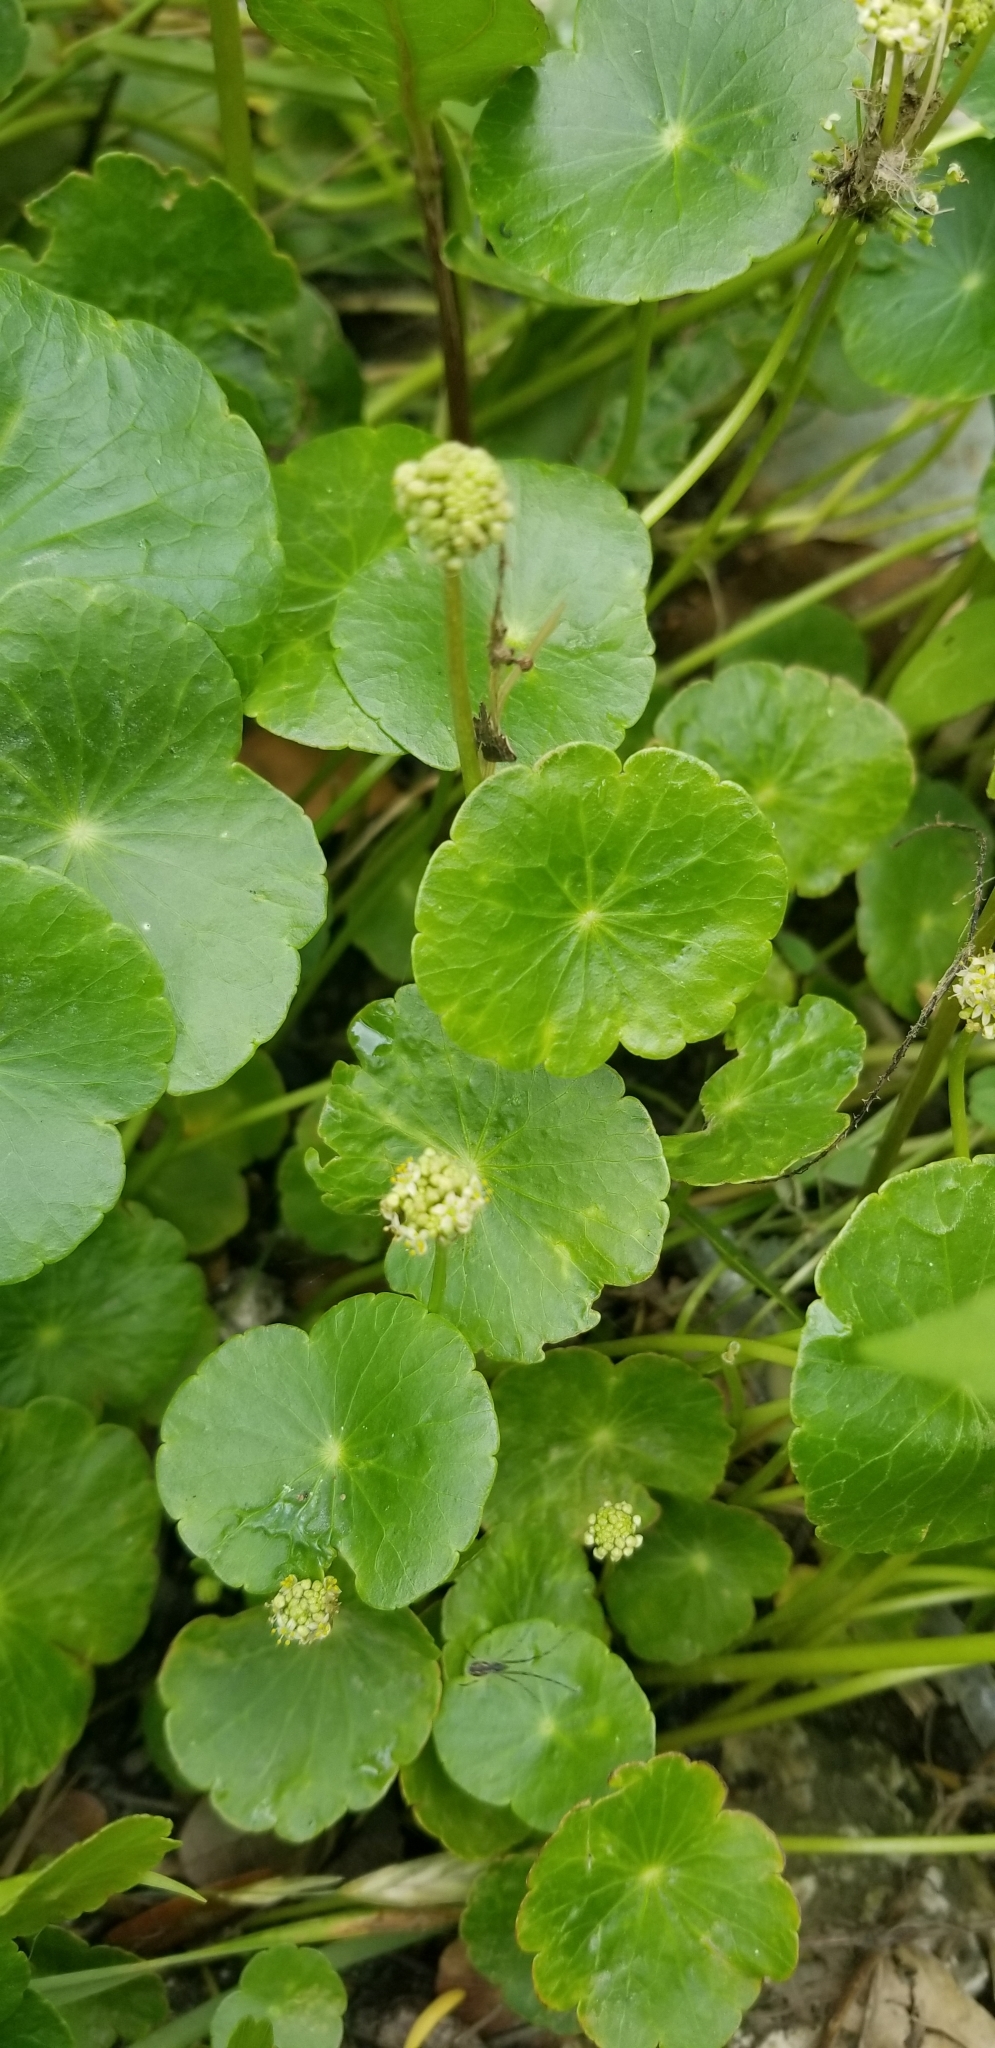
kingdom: Plantae
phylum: Tracheophyta
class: Magnoliopsida
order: Apiales
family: Araliaceae
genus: Hydrocotyle
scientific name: Hydrocotyle prolifera
